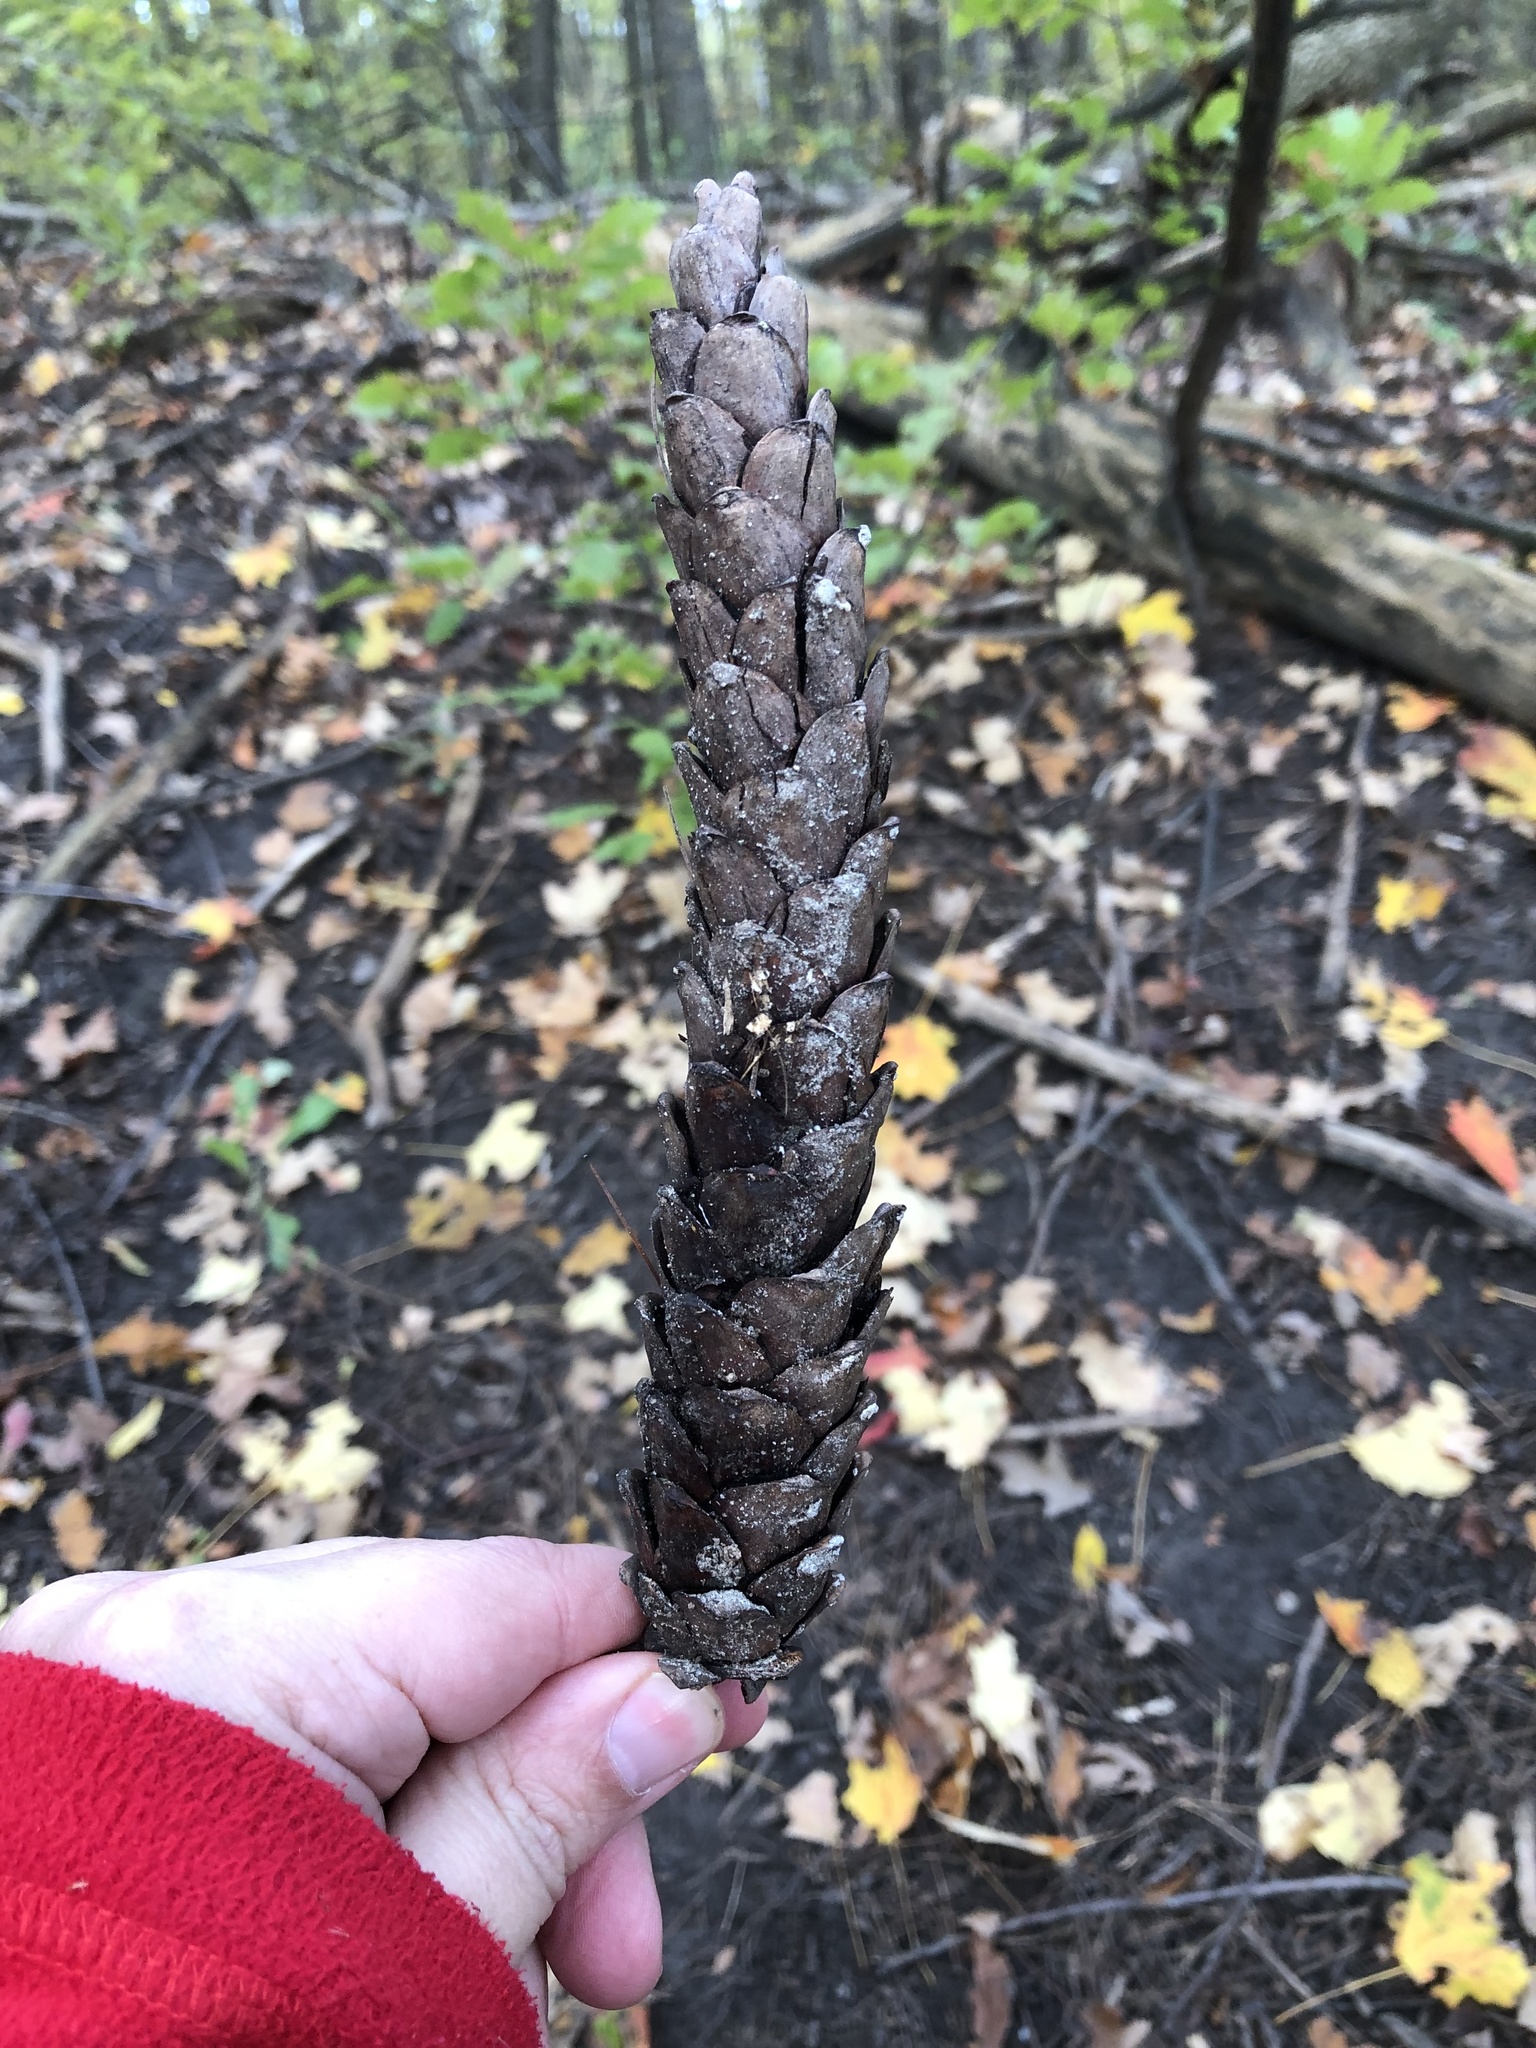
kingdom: Plantae
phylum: Tracheophyta
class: Pinopsida
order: Pinales
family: Pinaceae
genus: Pinus
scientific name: Pinus strobus
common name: Weymouth pine
